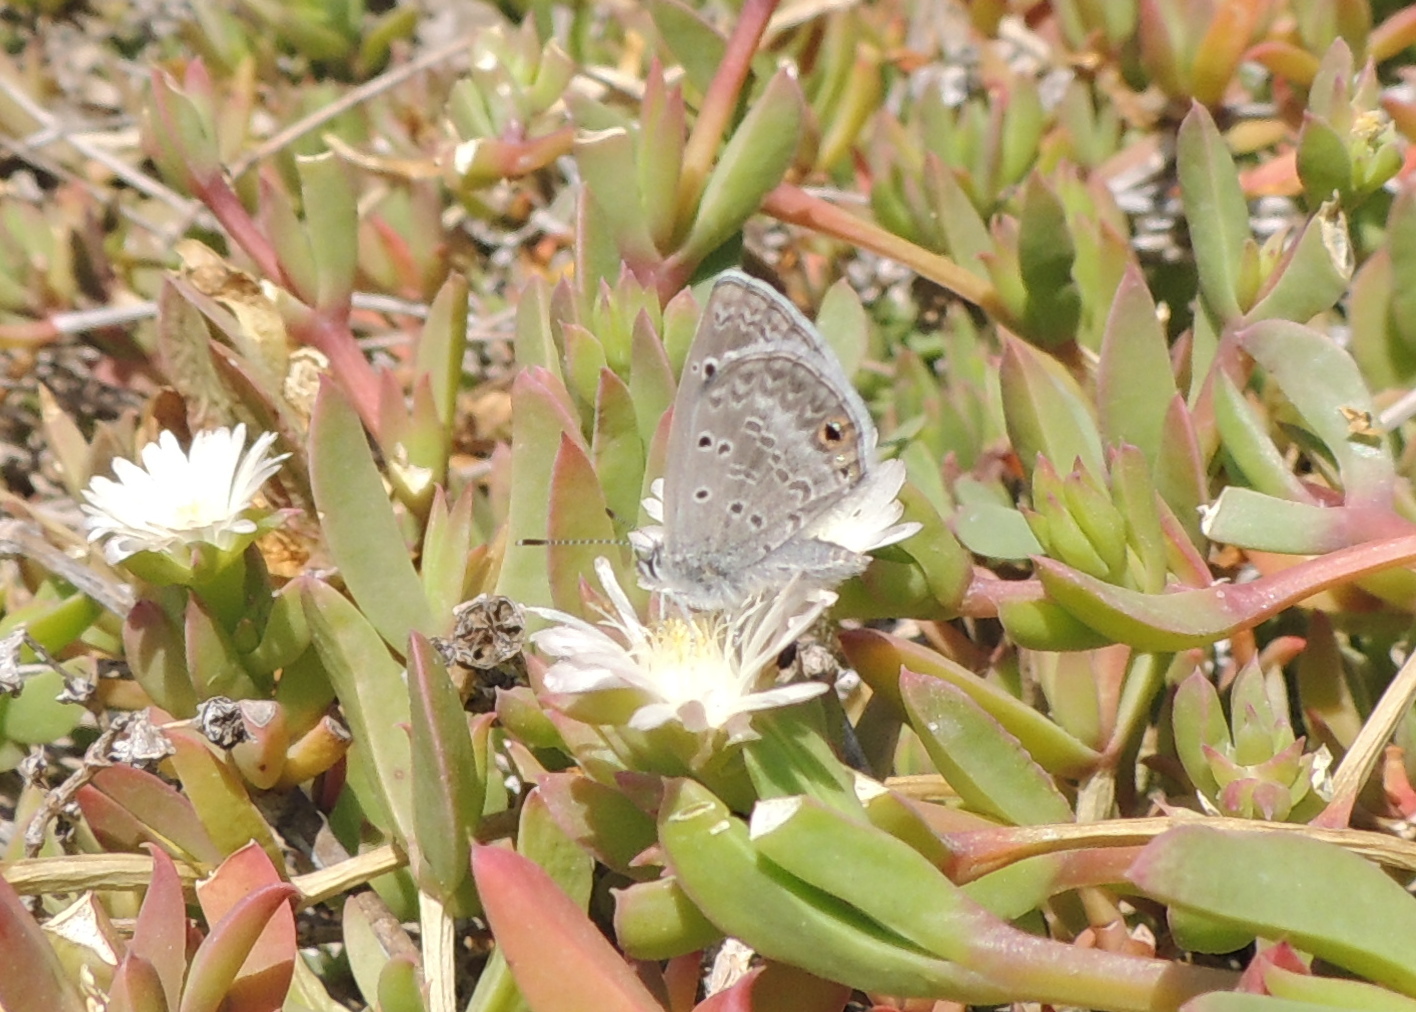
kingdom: Animalia
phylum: Arthropoda
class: Insecta
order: Lepidoptera
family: Lycaenidae
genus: Echinargus
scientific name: Echinargus isola
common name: Reakirt's blue
